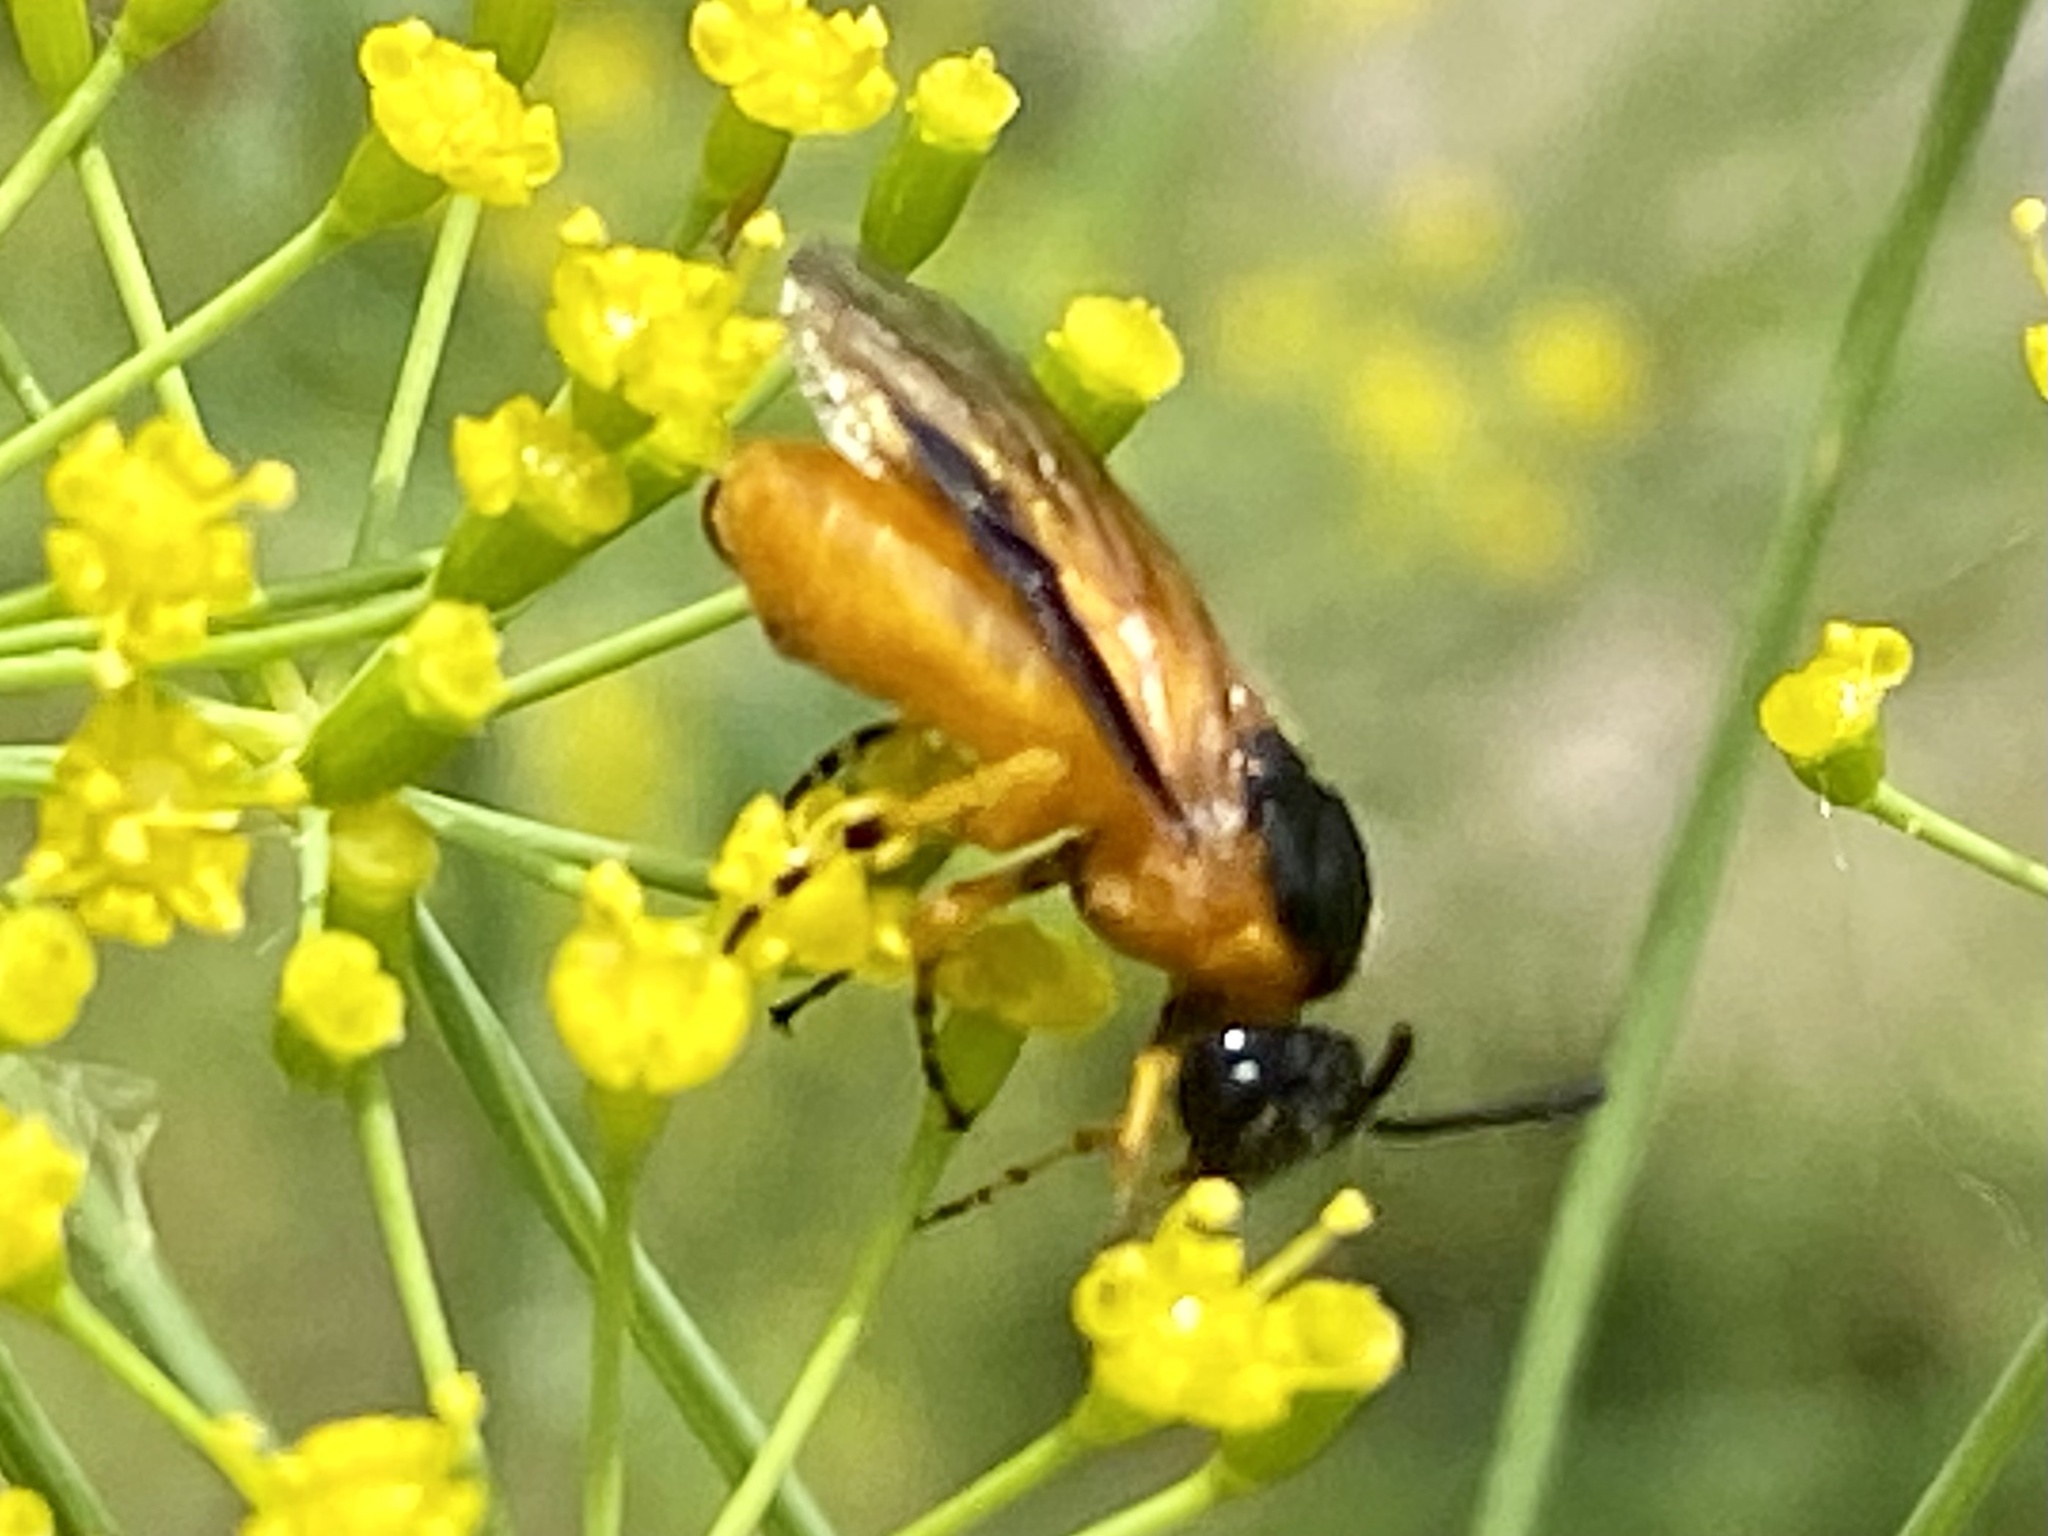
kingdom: Animalia
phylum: Arthropoda
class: Insecta
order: Hymenoptera
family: Argidae
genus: Arge
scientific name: Arge ochropus
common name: Argid sawfly
